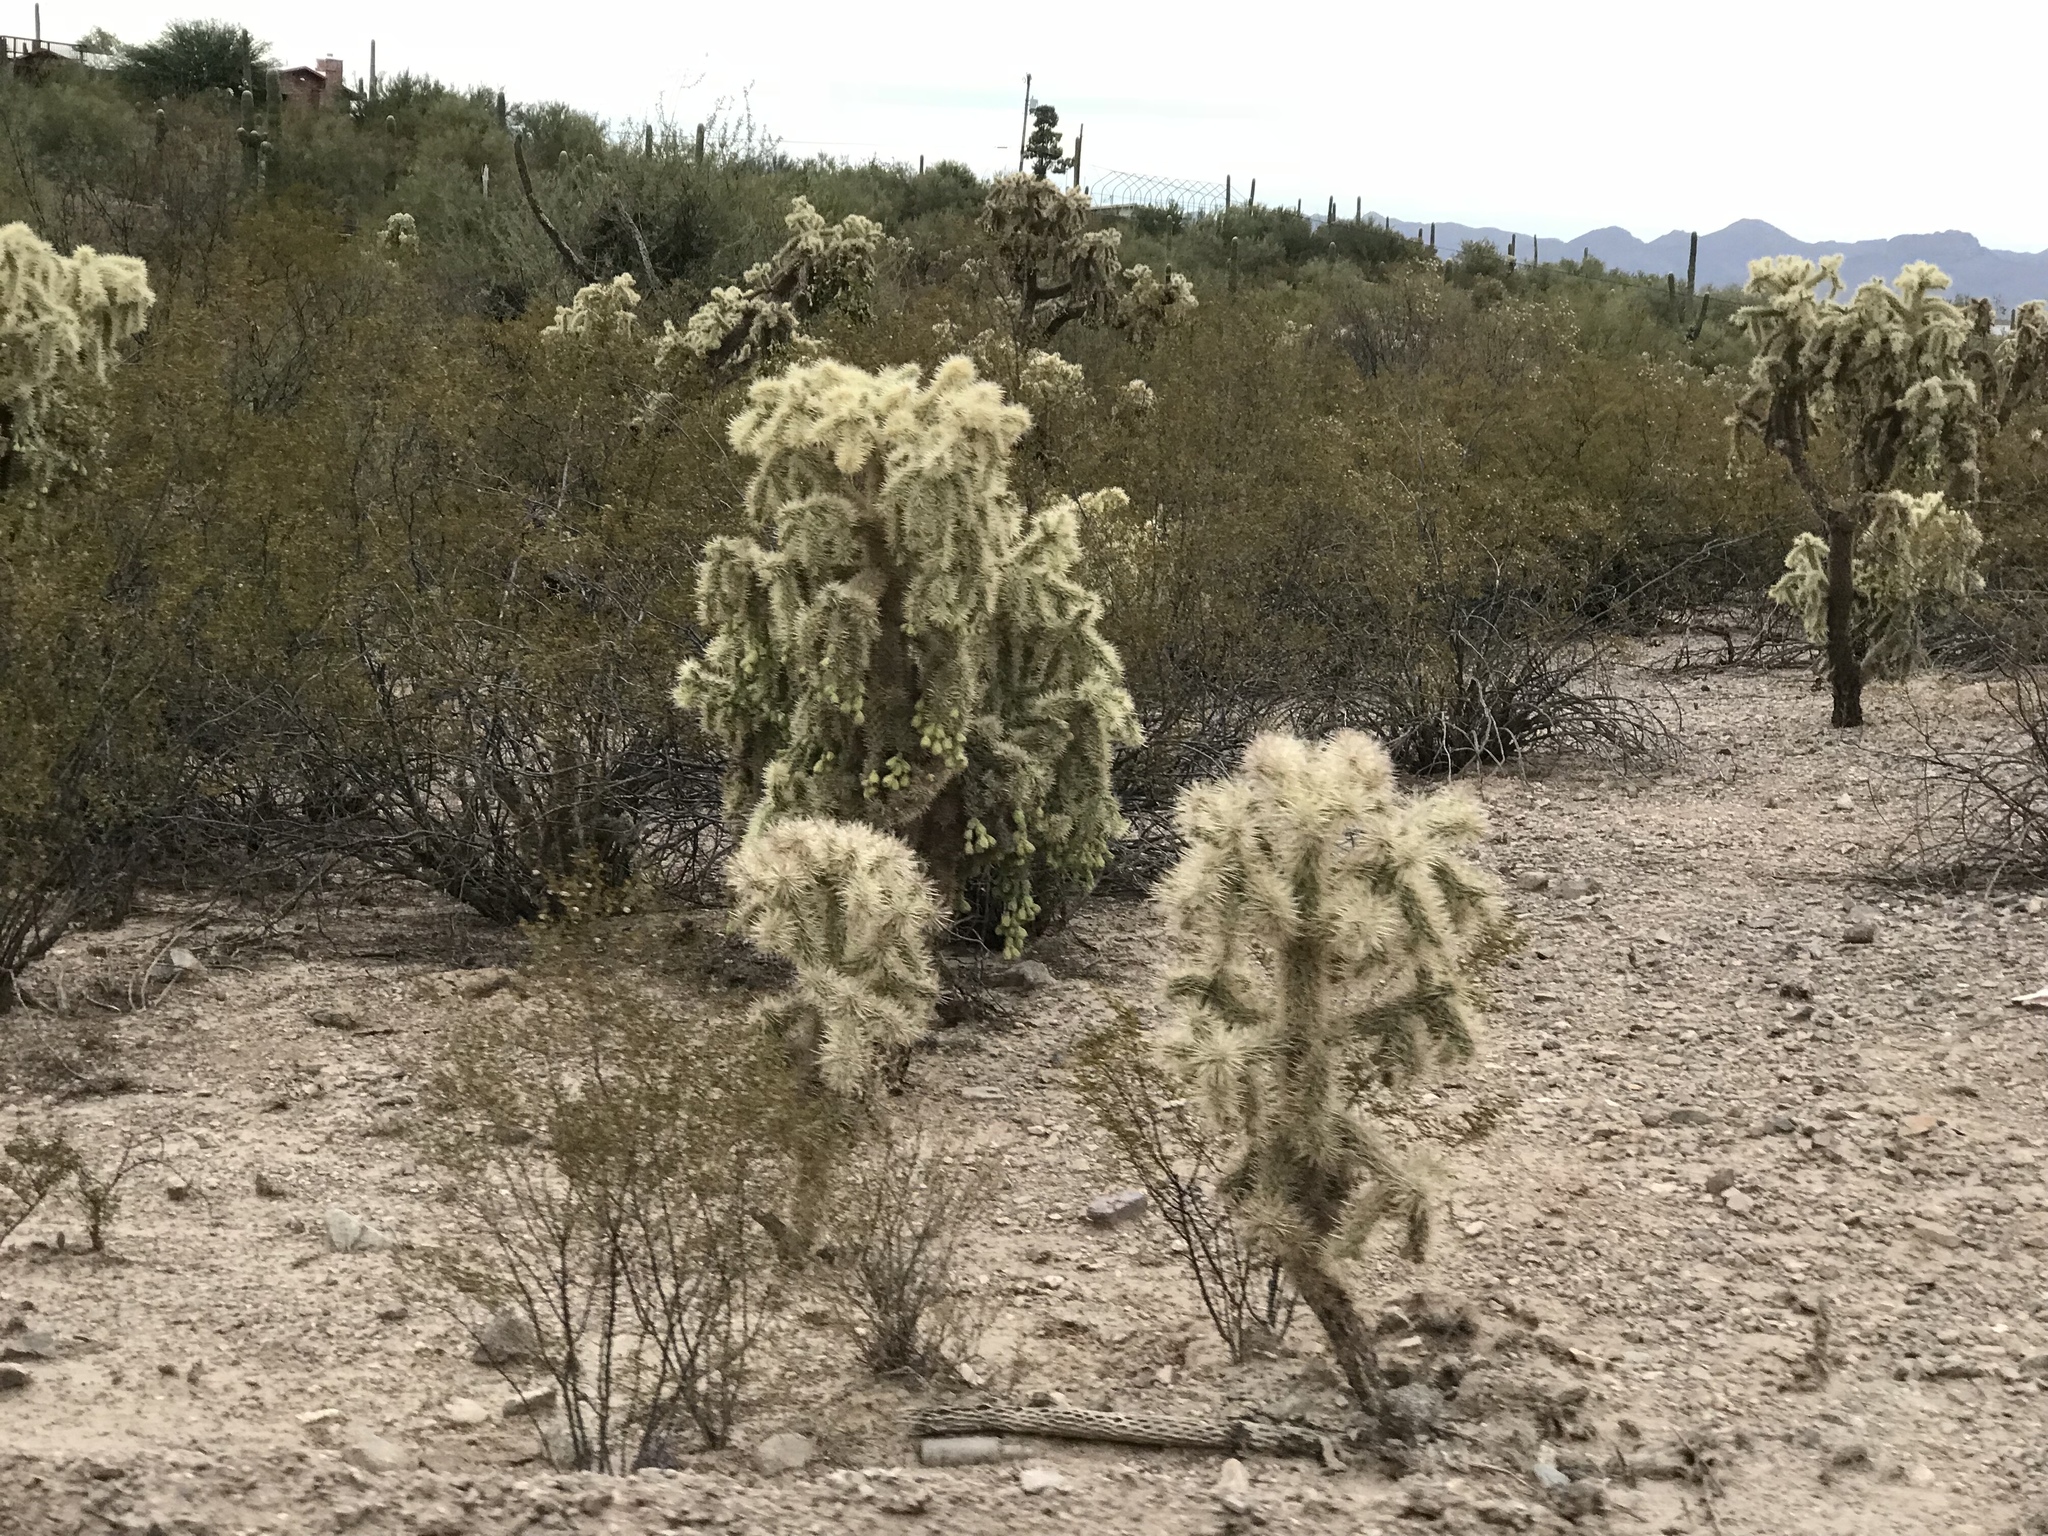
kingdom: Plantae
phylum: Tracheophyta
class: Magnoliopsida
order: Caryophyllales
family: Cactaceae
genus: Cylindropuntia
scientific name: Cylindropuntia fulgida
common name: Jumping cholla
